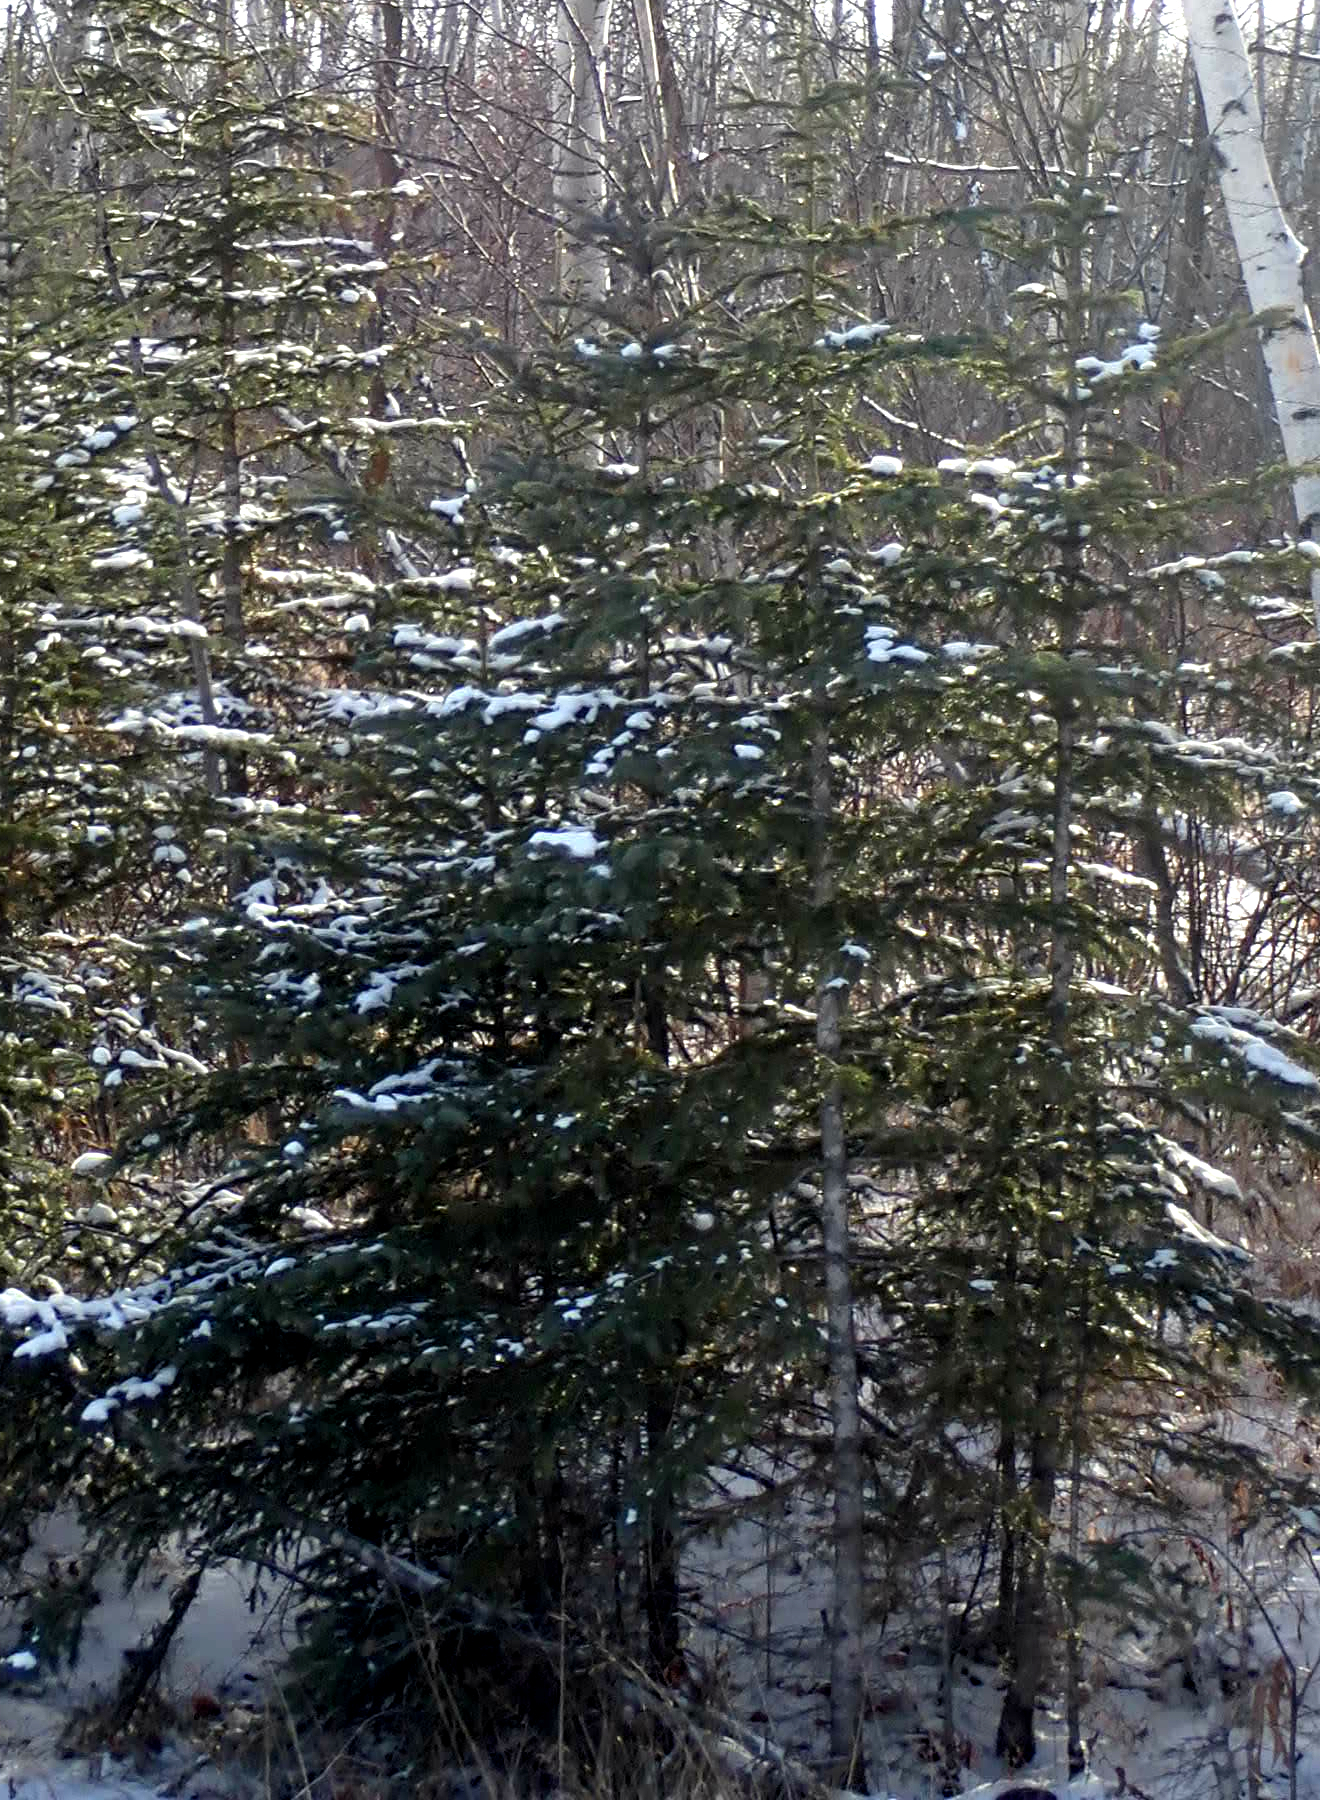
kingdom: Plantae
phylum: Tracheophyta
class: Pinopsida
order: Pinales
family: Pinaceae
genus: Picea
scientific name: Picea glauca
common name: White spruce
